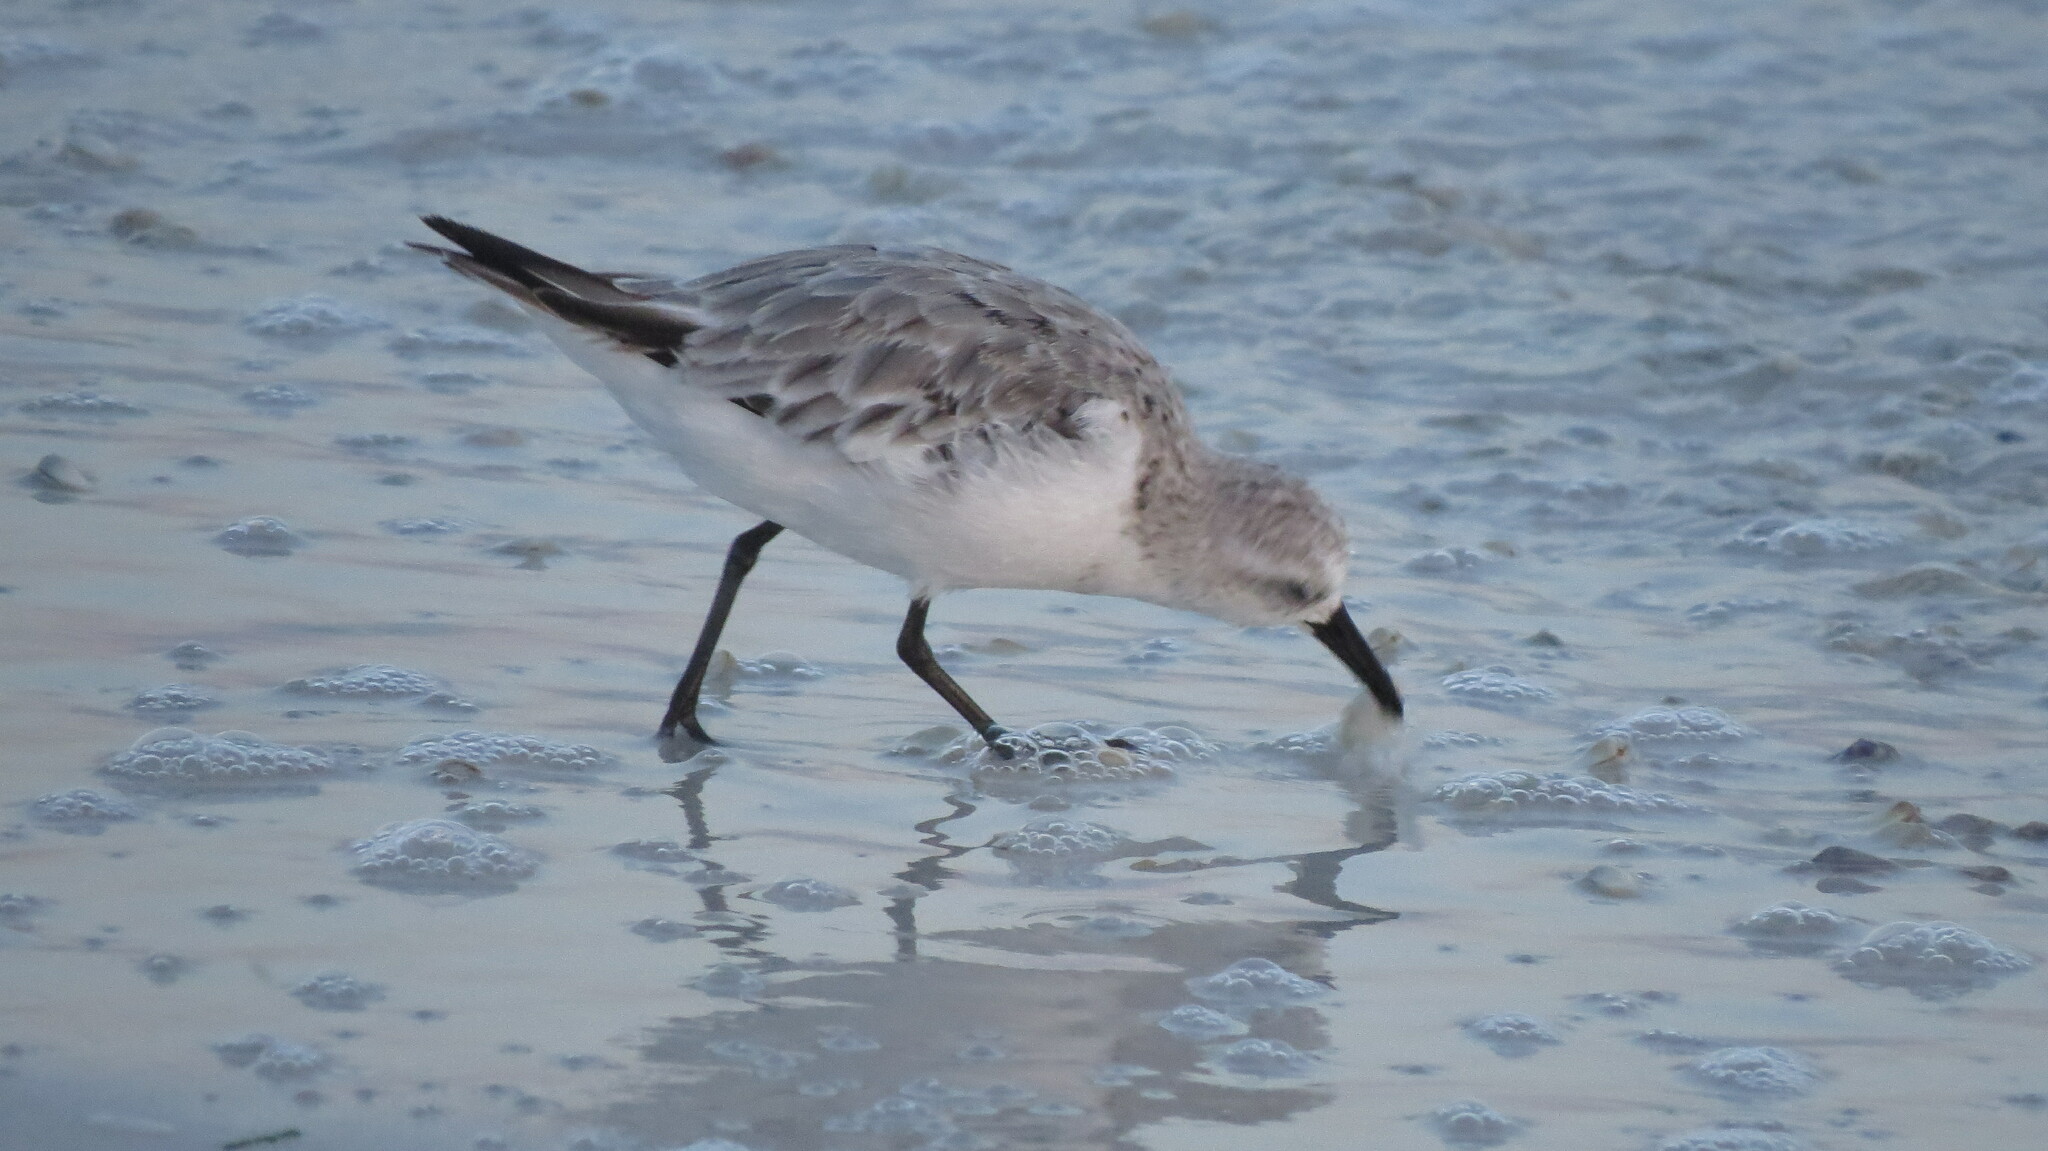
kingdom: Animalia
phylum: Chordata
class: Aves
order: Charadriiformes
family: Scolopacidae
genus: Calidris
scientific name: Calidris alba
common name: Sanderling
